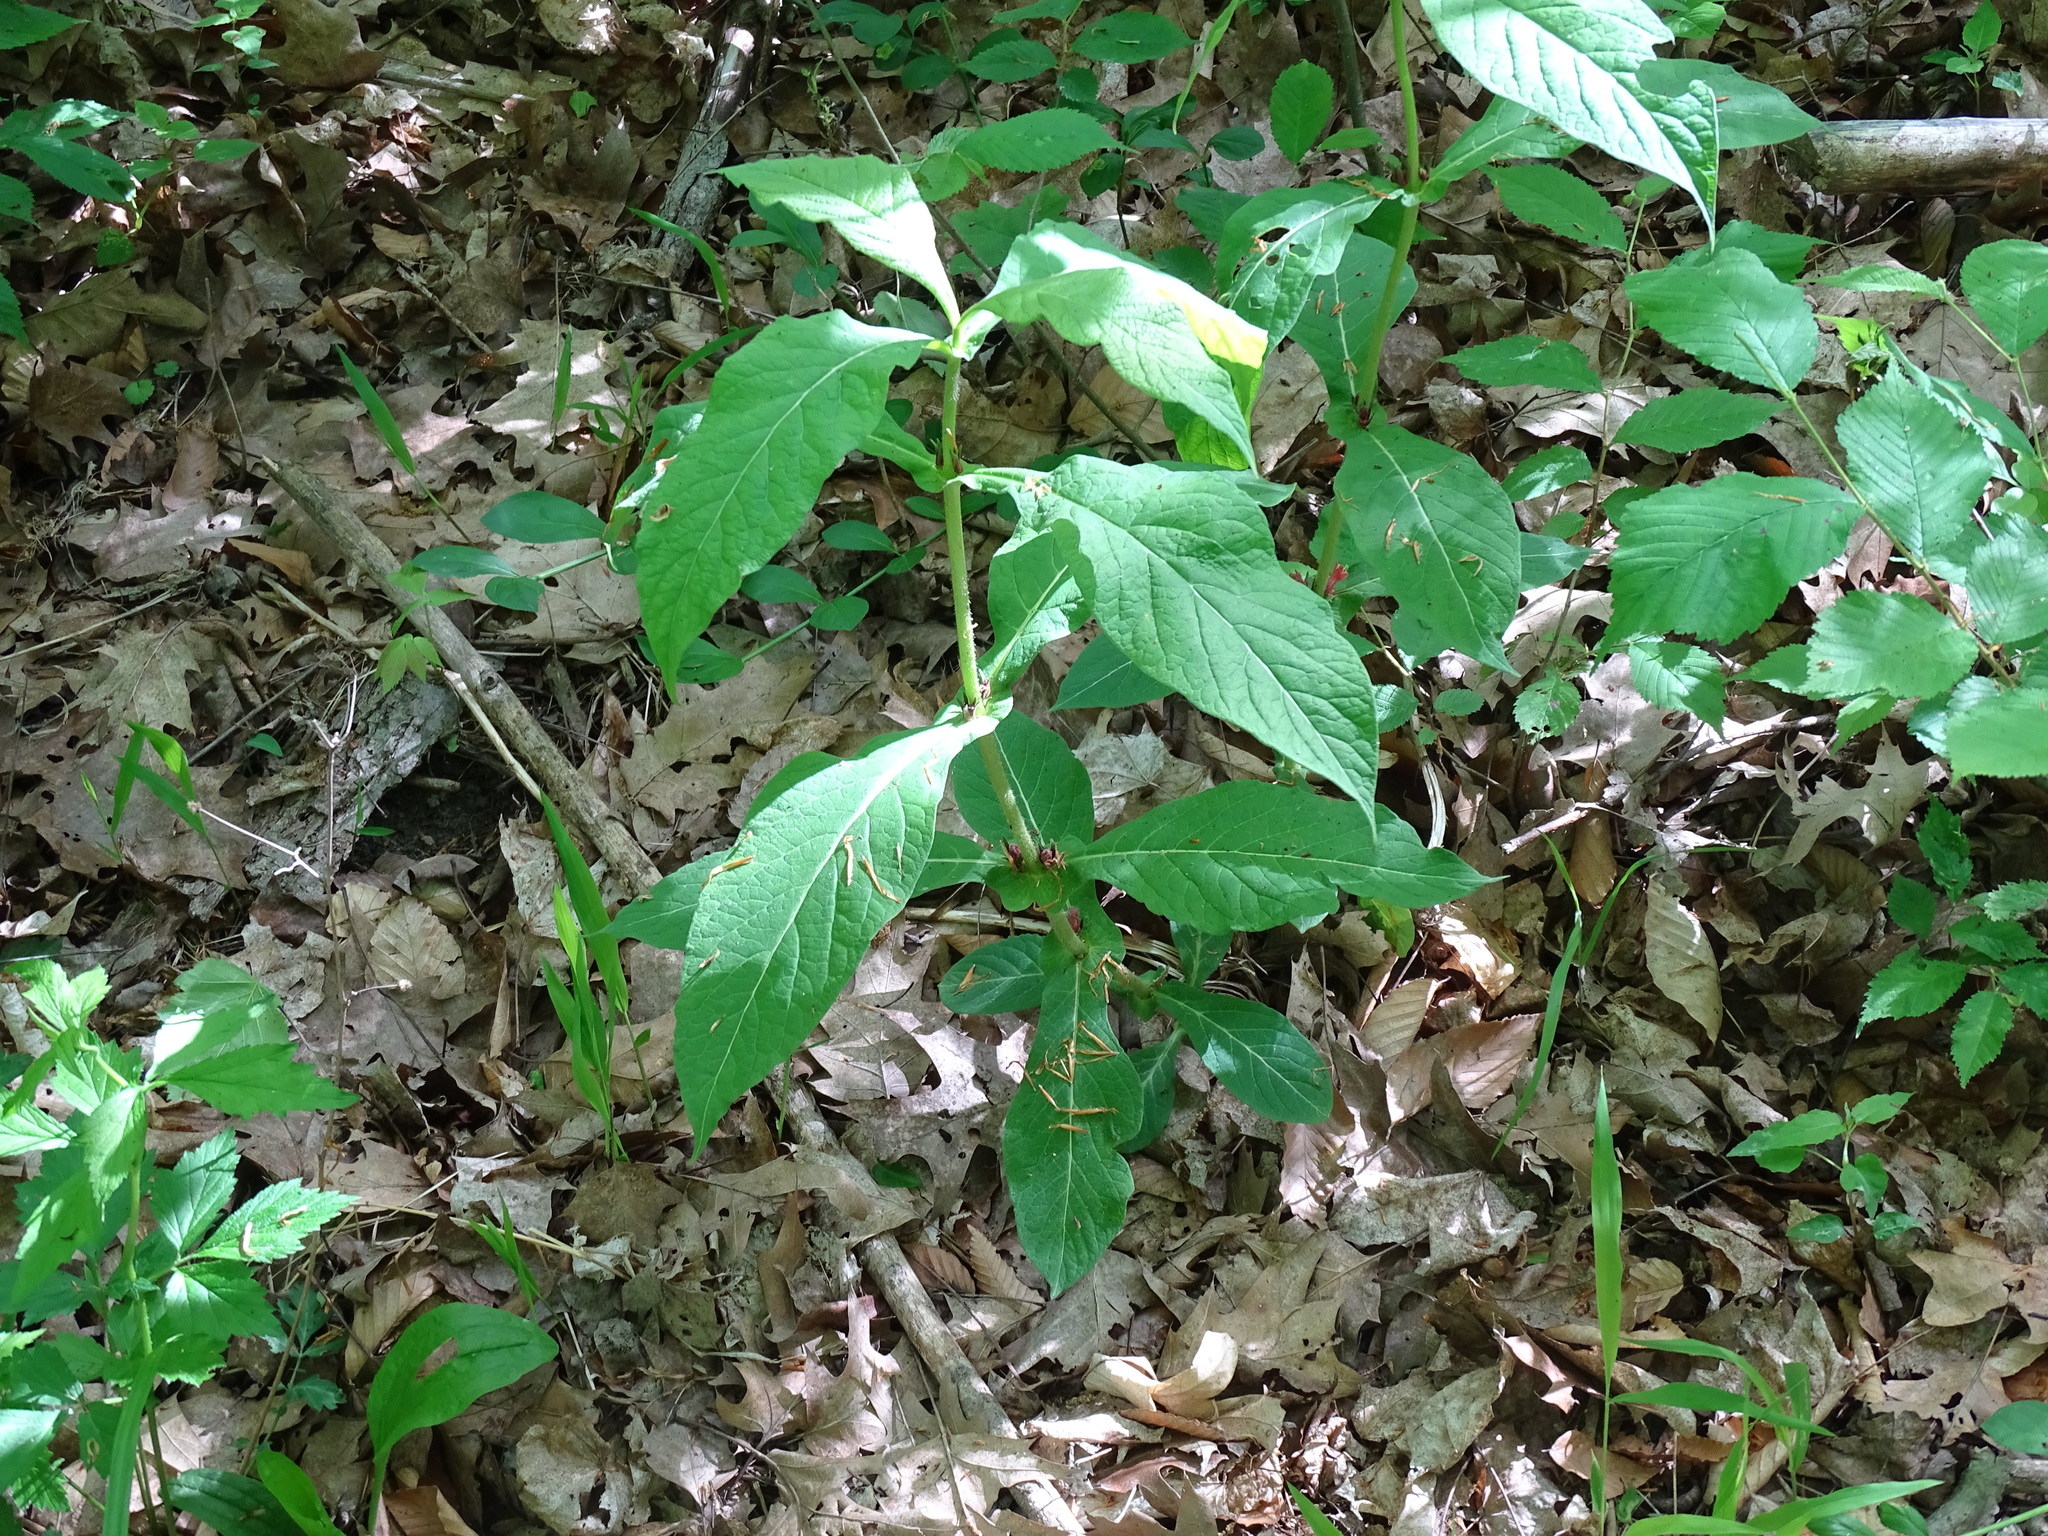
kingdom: Plantae
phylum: Tracheophyta
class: Magnoliopsida
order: Dipsacales
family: Caprifoliaceae
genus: Triosteum
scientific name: Triosteum perfoliatum
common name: Common horse-gentian
